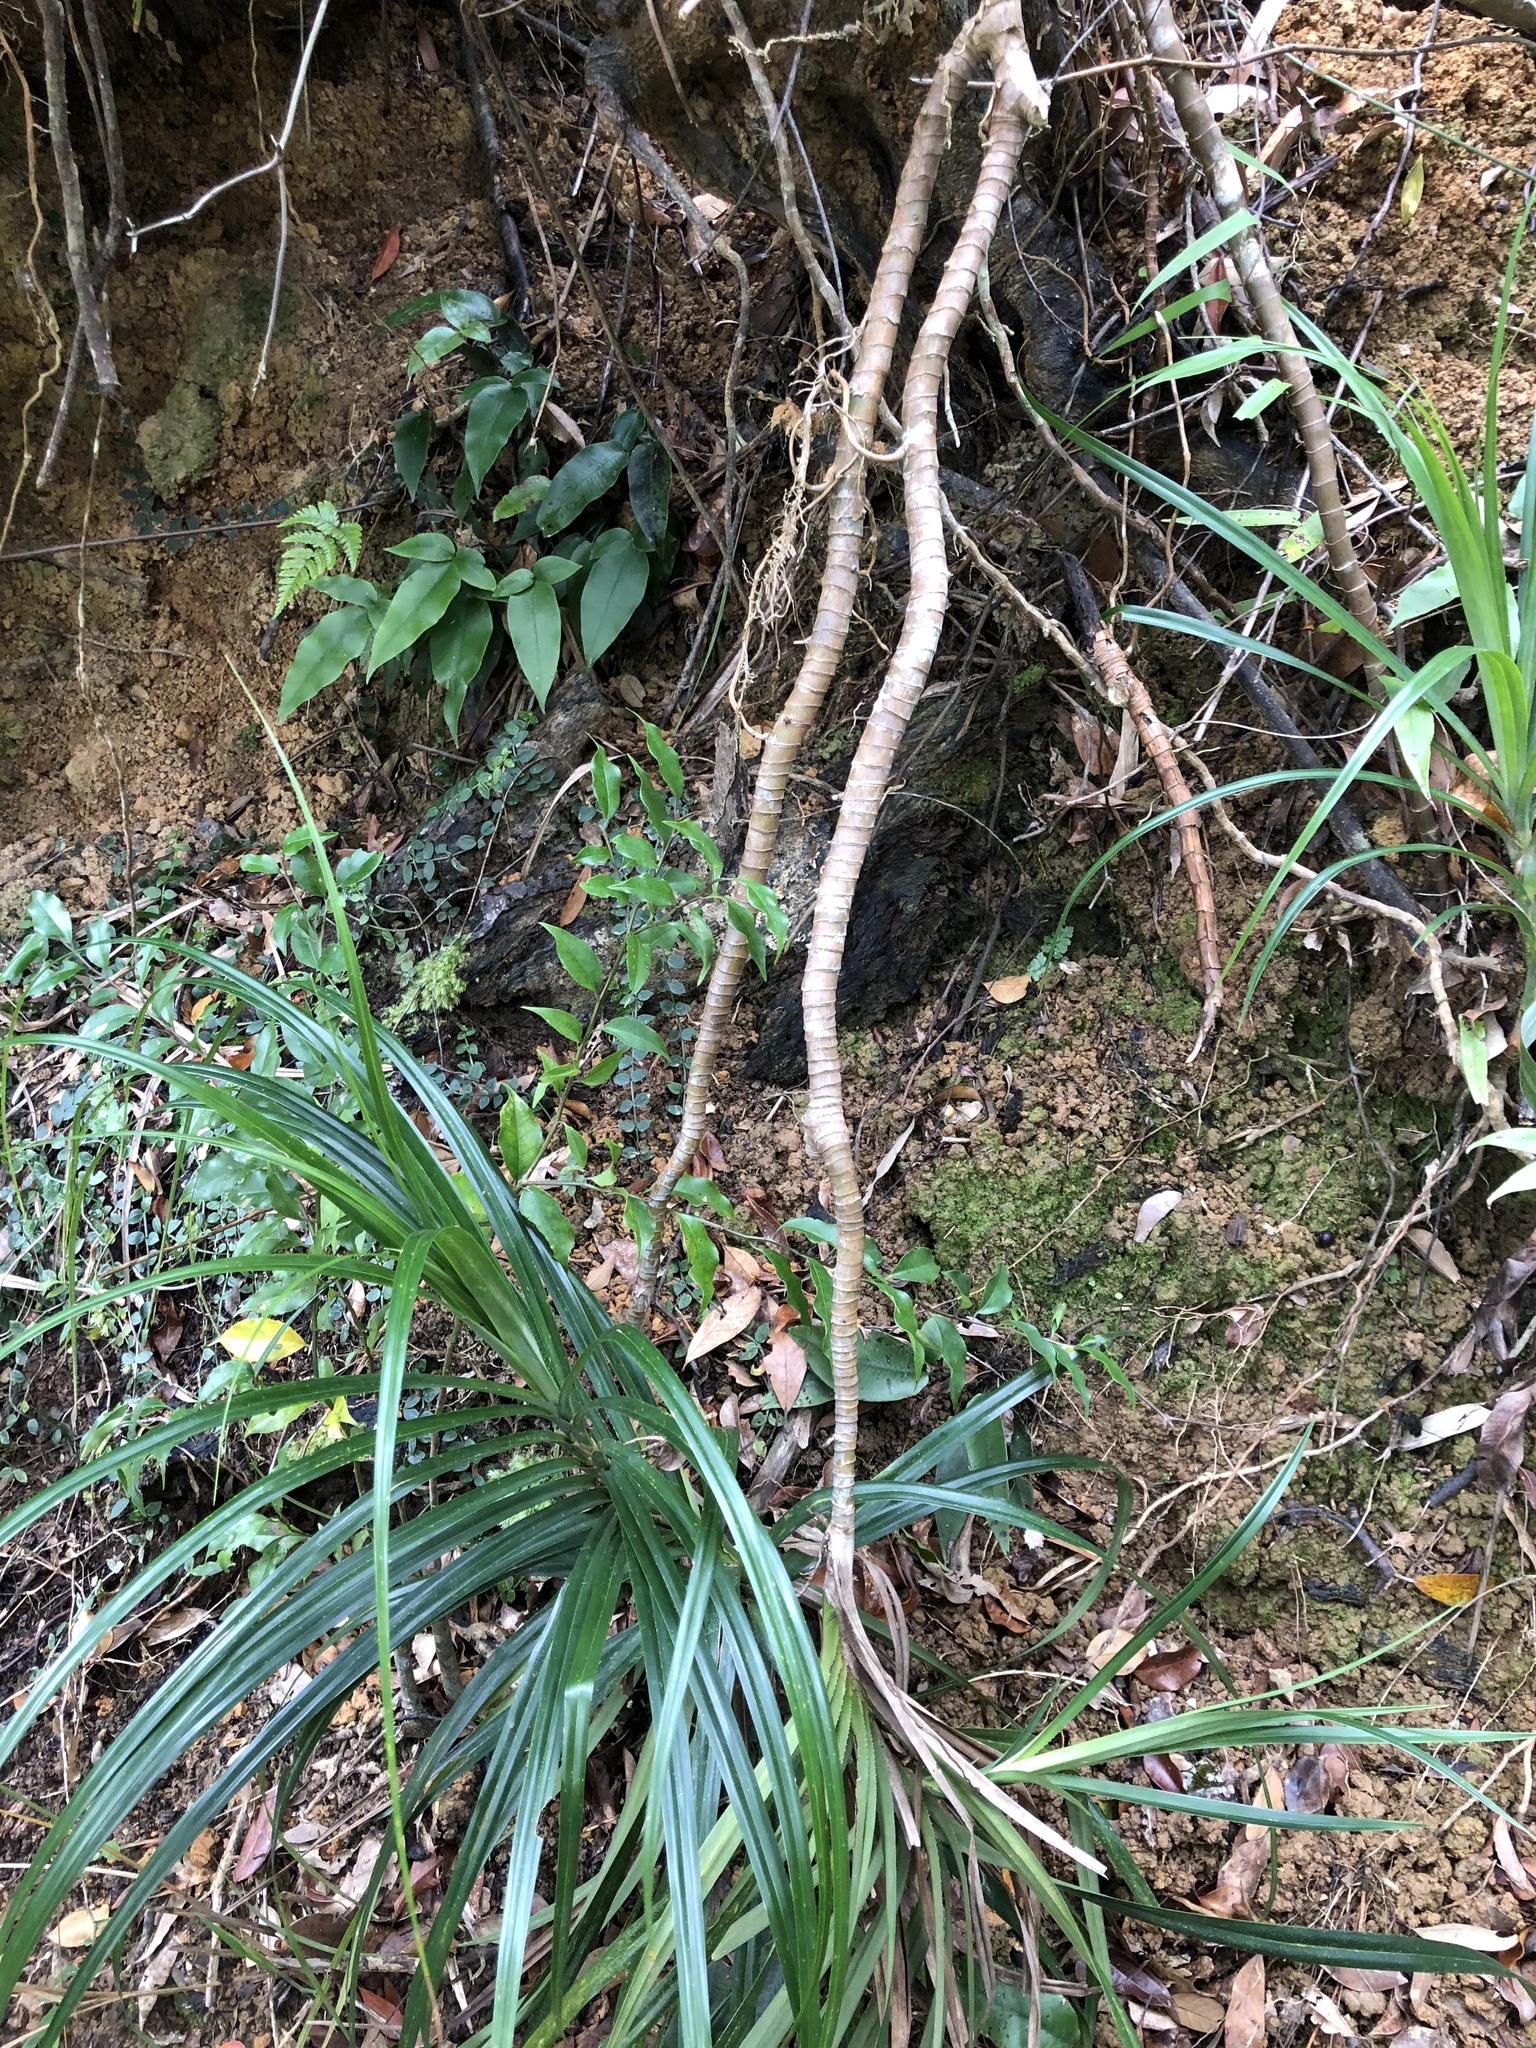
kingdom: Plantae
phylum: Tracheophyta
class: Liliopsida
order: Pandanales
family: Pandanaceae
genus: Freycinetia
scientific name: Freycinetia formosana
